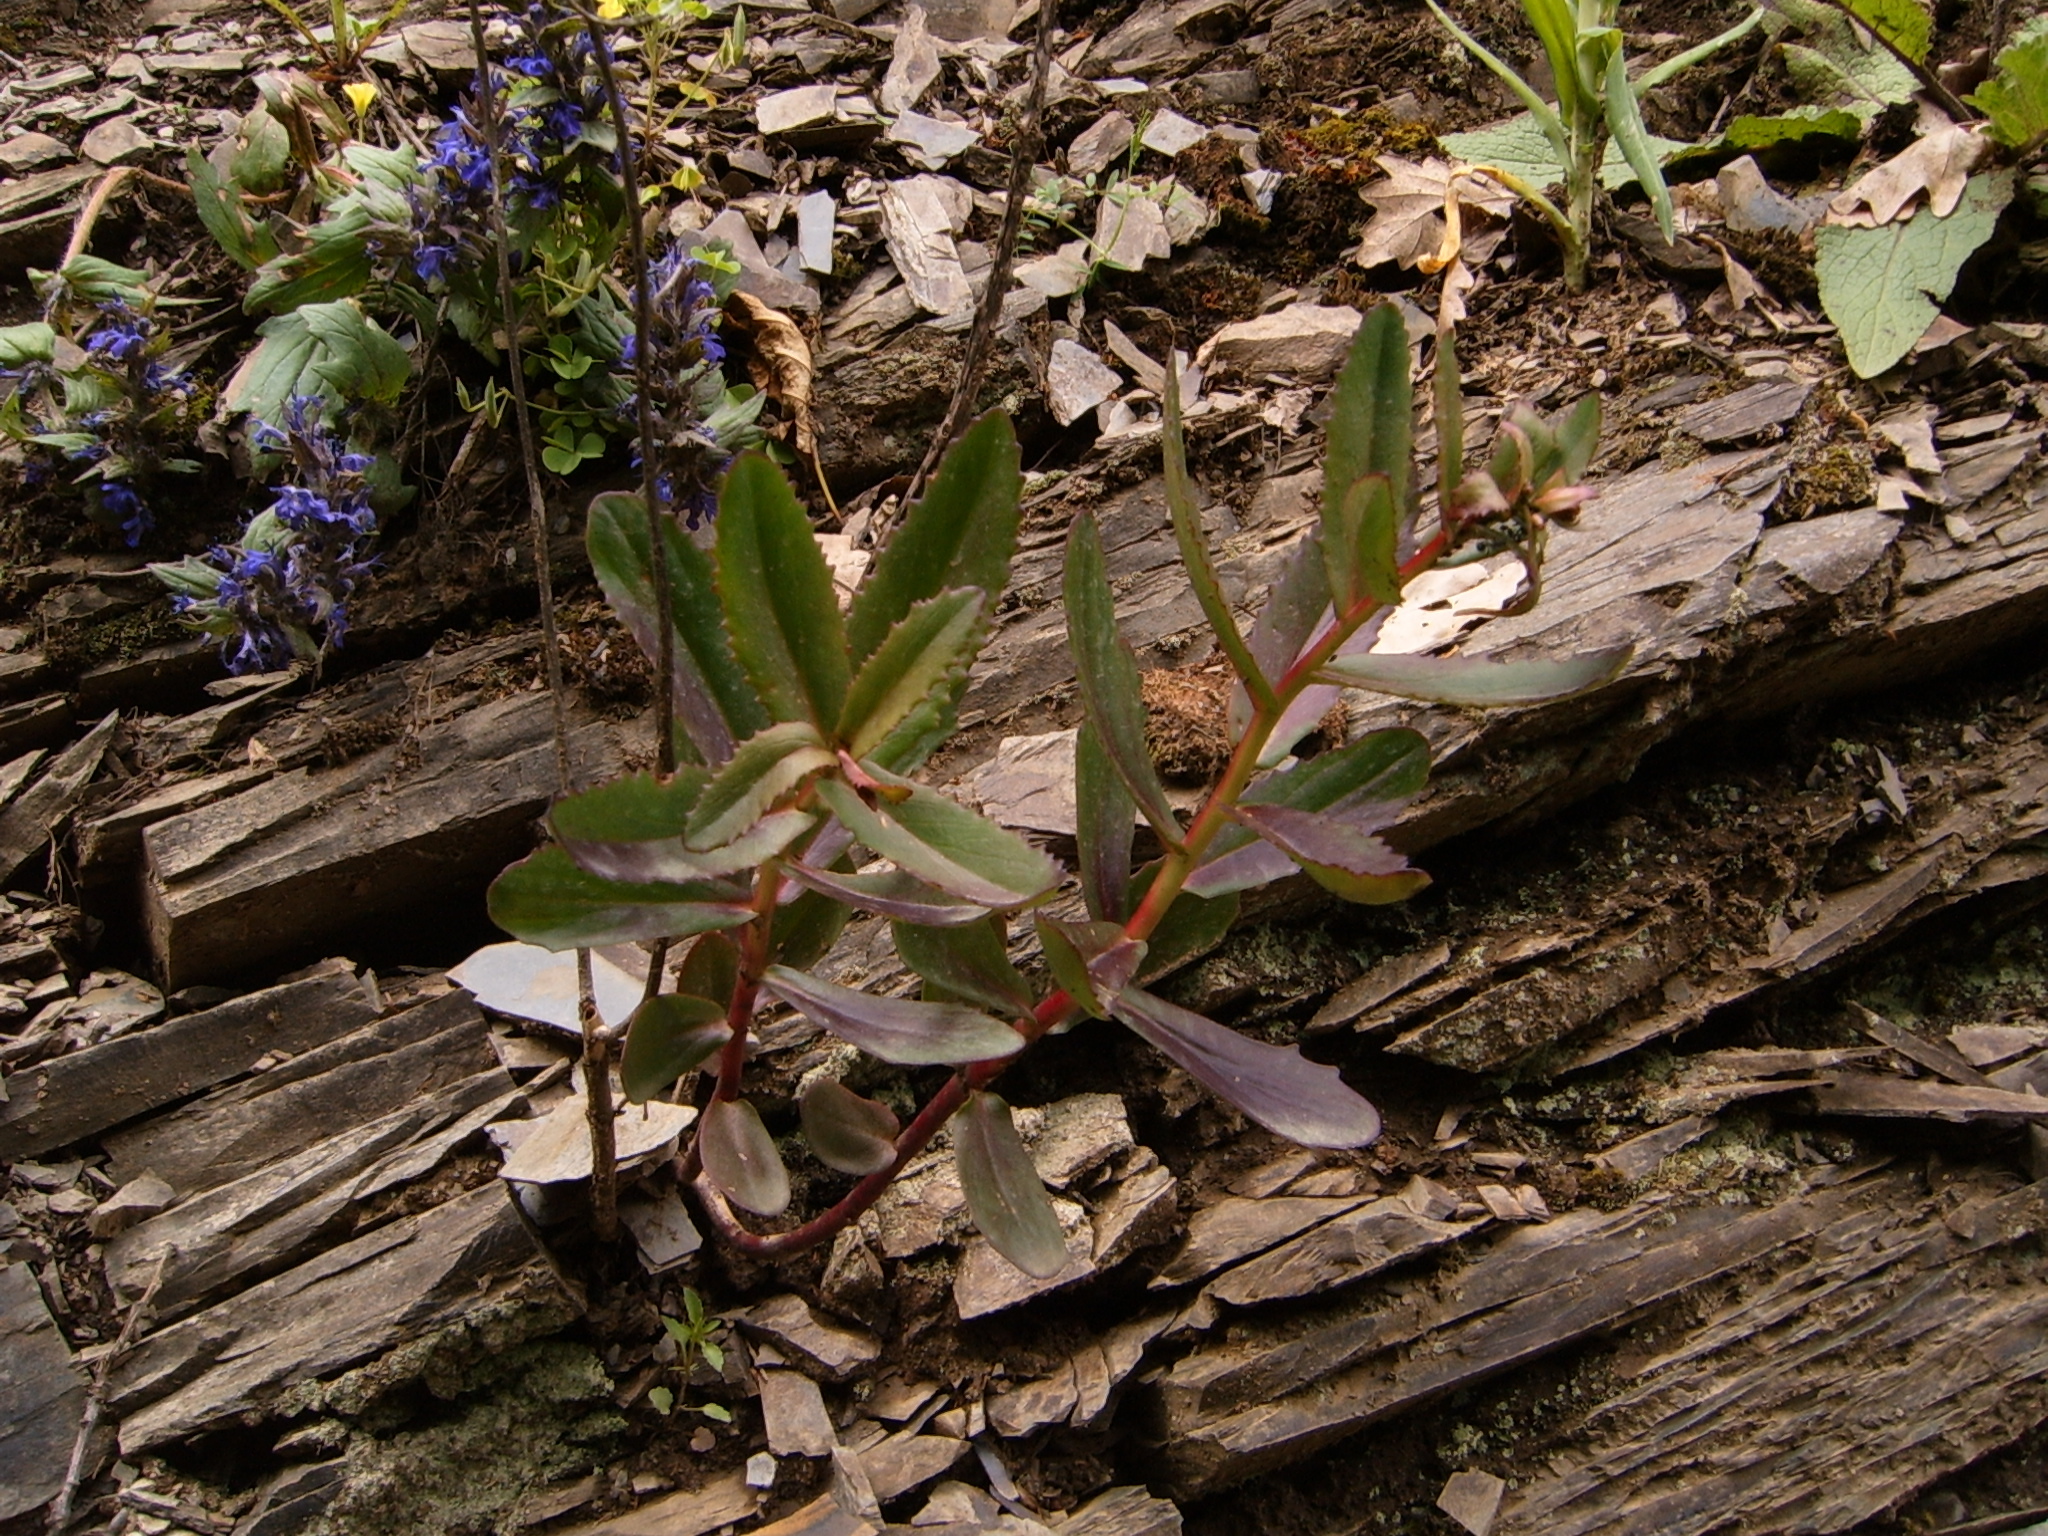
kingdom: Plantae
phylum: Tracheophyta
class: Magnoliopsida
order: Lamiales
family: Lamiaceae
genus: Ajuga
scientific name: Ajuga genevensis
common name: Blue bugle
